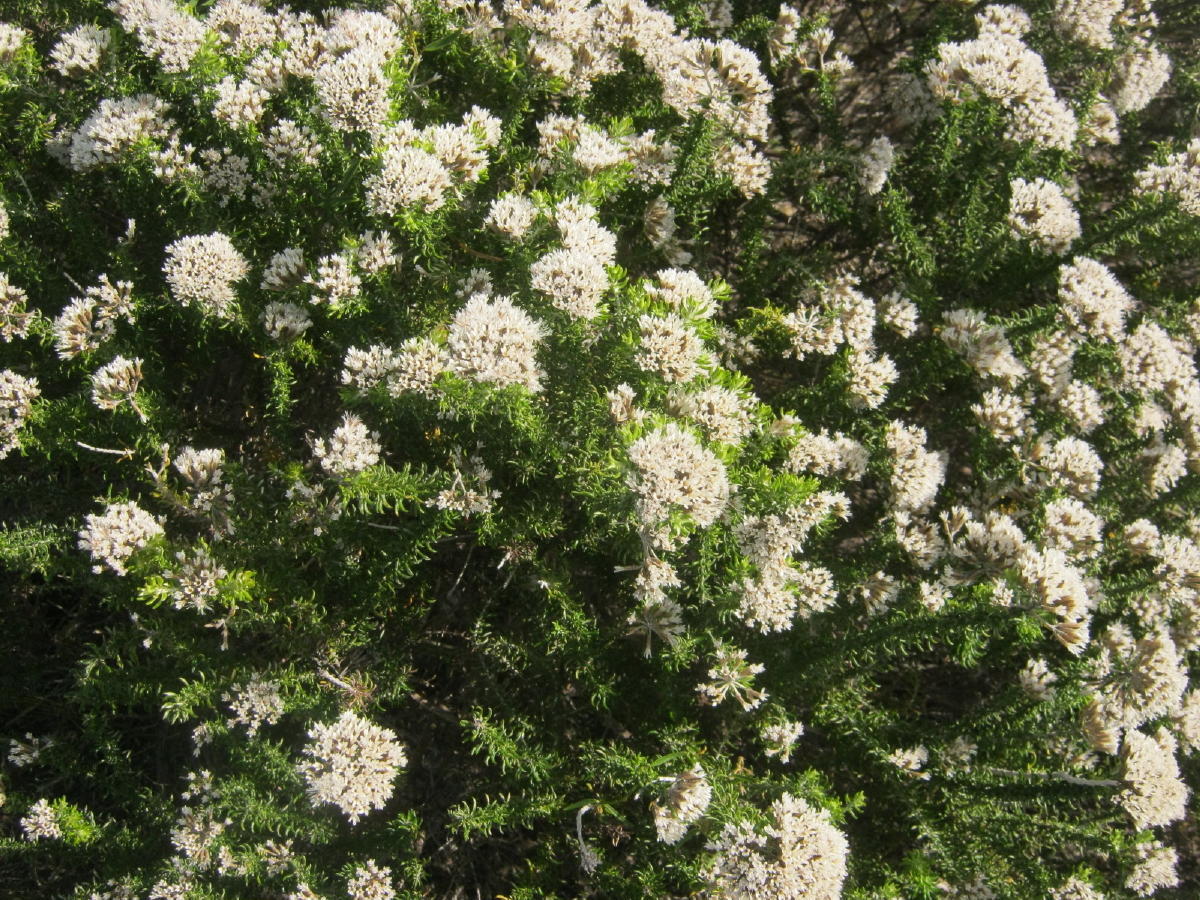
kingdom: Plantae
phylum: Tracheophyta
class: Magnoliopsida
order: Asterales
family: Asteraceae
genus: Metalasia
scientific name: Metalasia muricata
